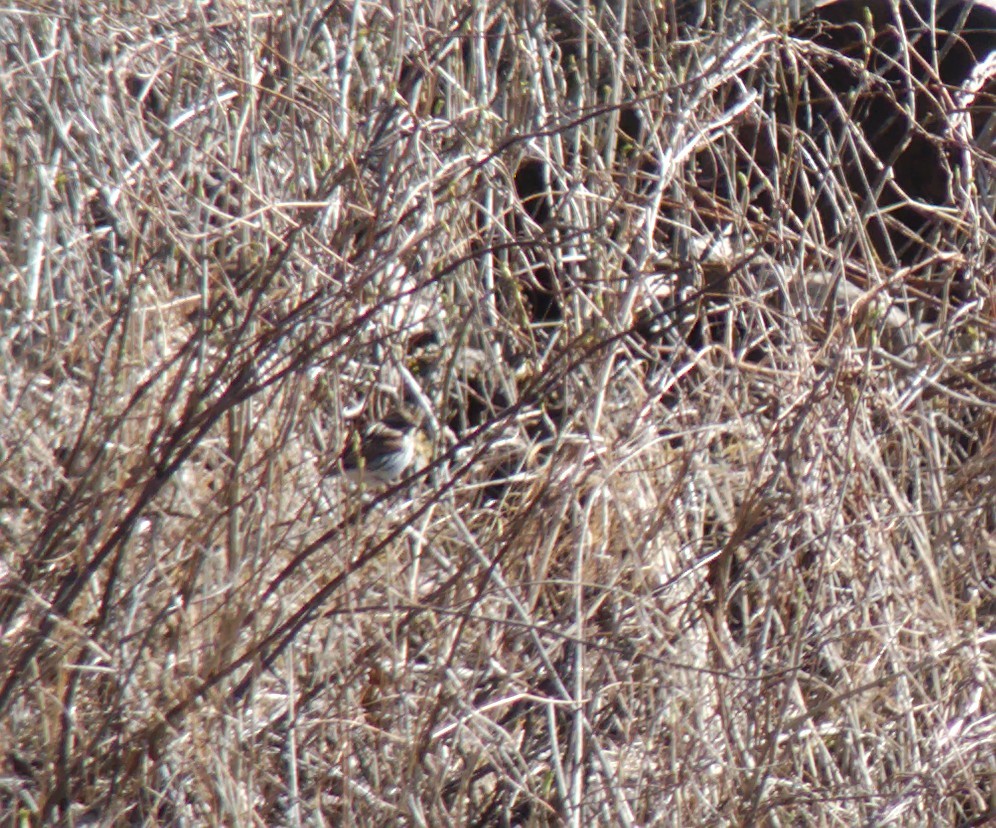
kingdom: Animalia
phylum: Chordata
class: Aves
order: Passeriformes
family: Emberizidae
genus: Emberiza
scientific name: Emberiza schoeniclus
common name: Reed bunting
